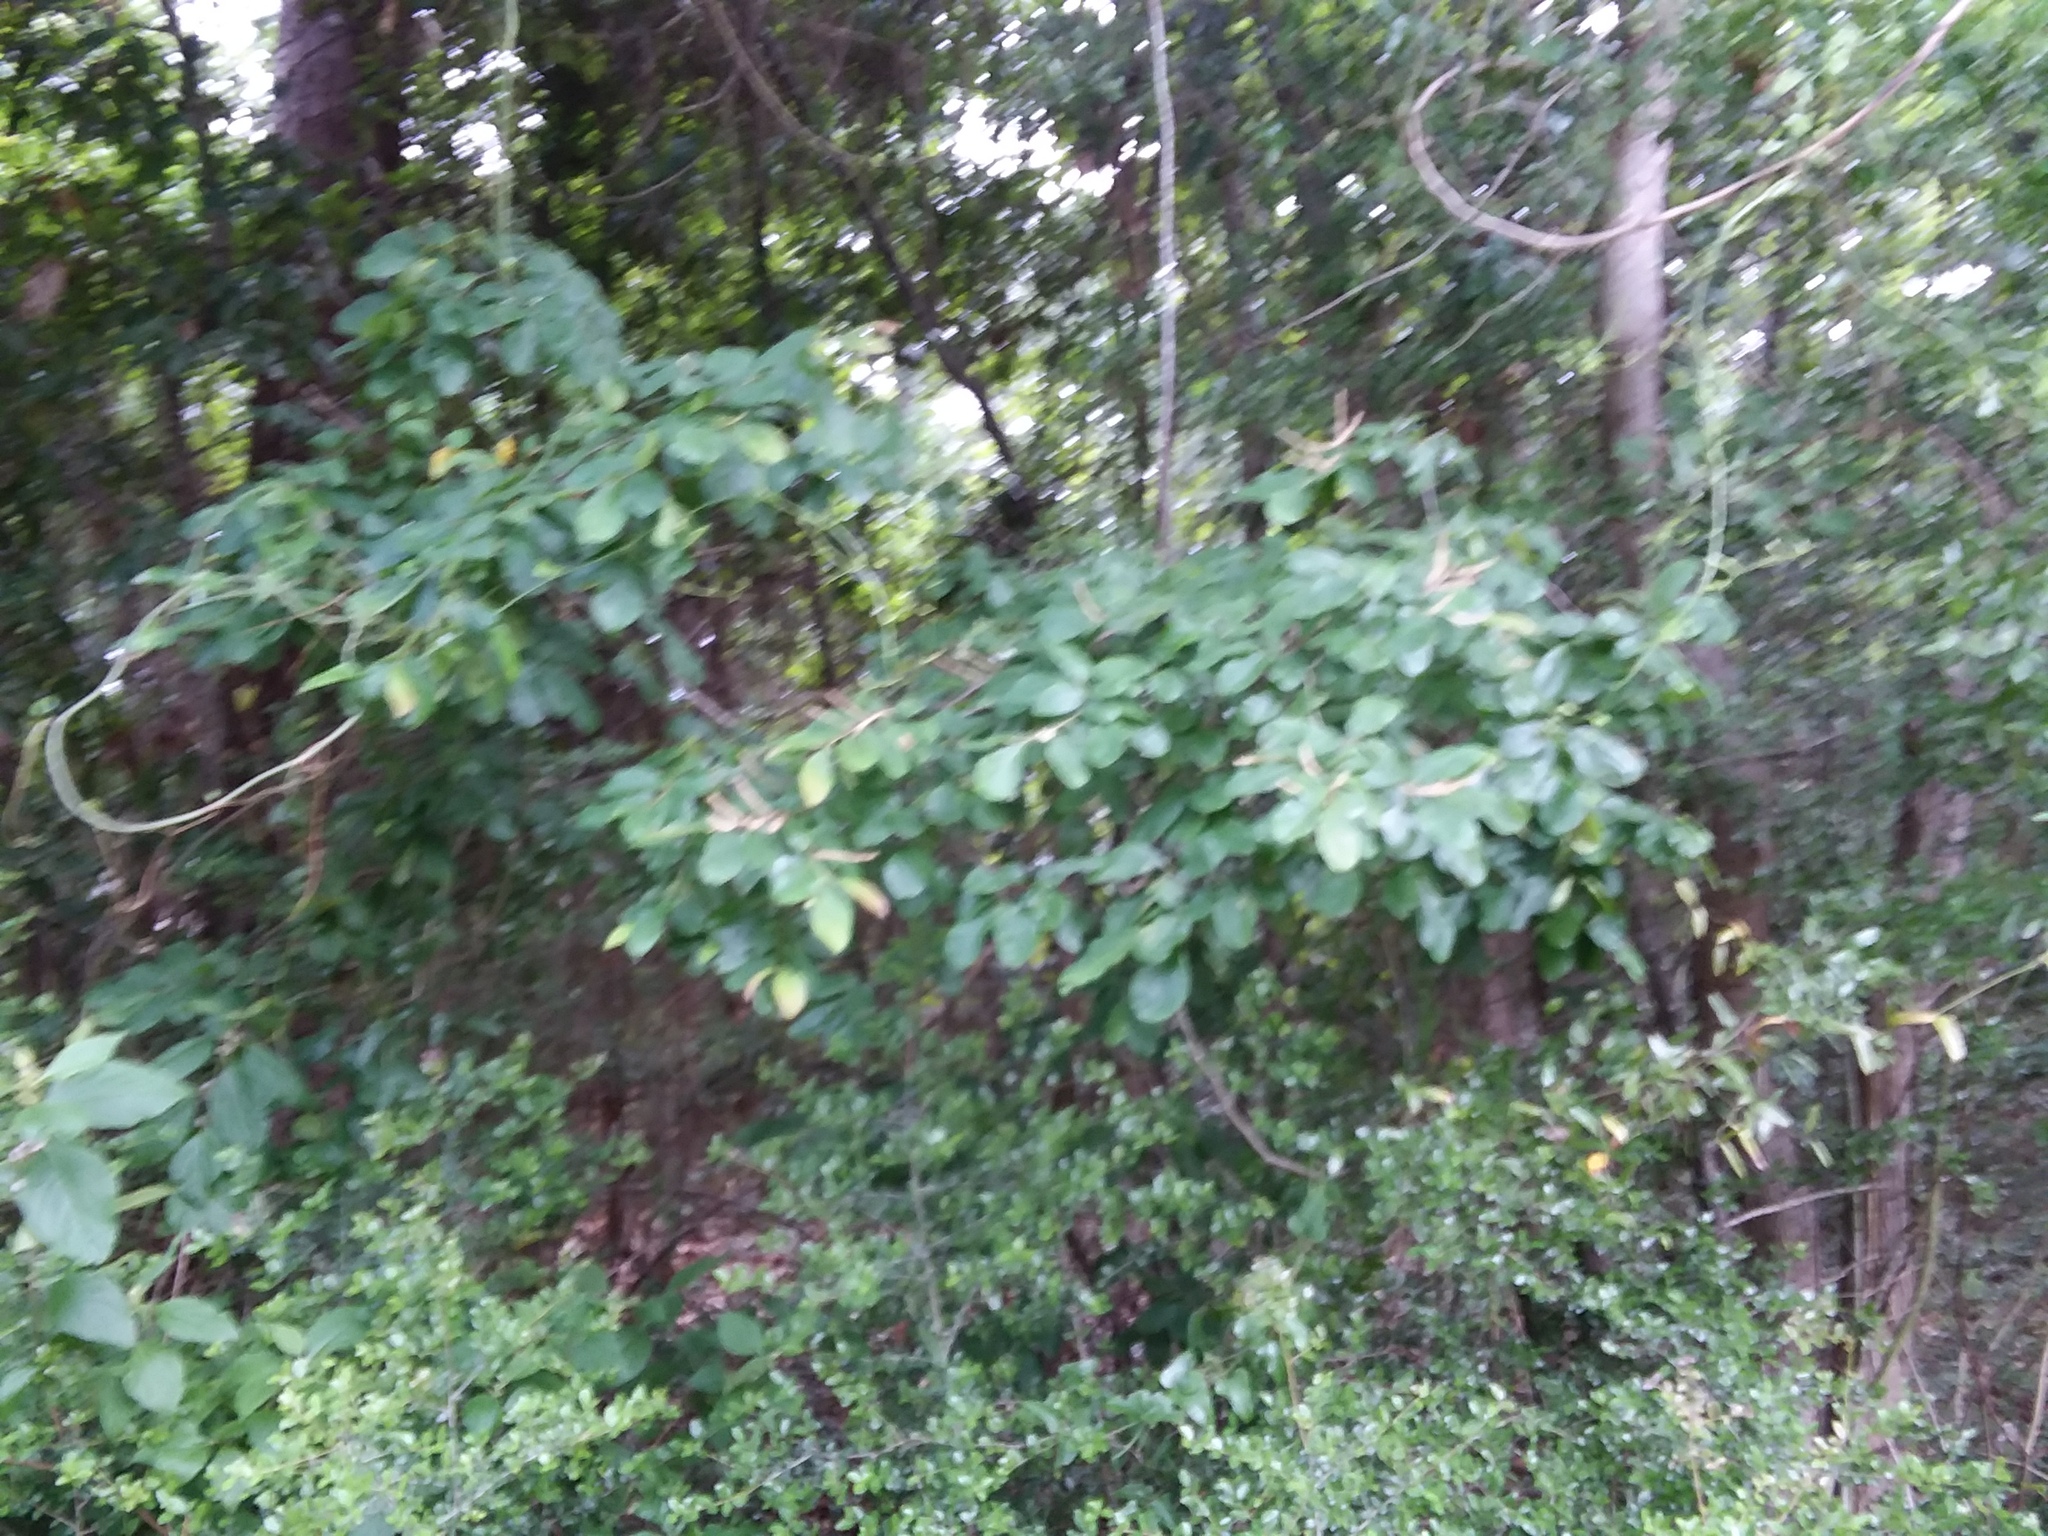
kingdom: Plantae
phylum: Tracheophyta
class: Magnoliopsida
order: Fagales
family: Fagaceae
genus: Castanea
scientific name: Castanea pumila
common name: Chinkapin
